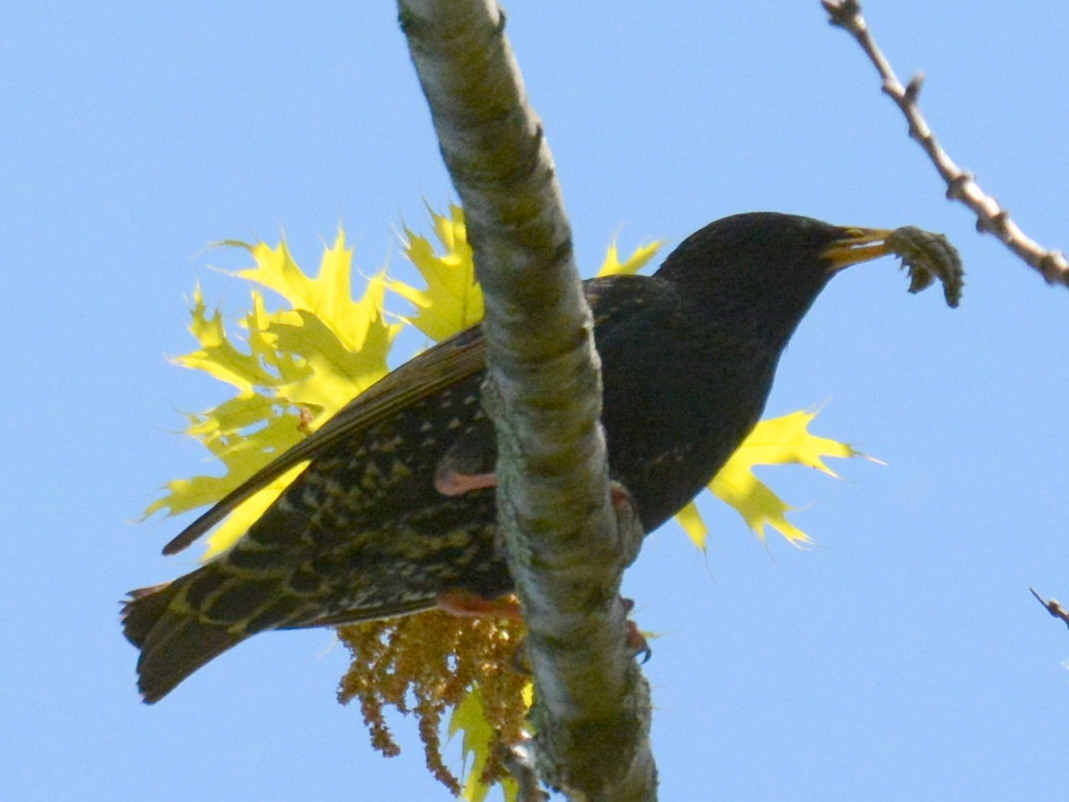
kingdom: Animalia
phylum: Chordata
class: Aves
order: Passeriformes
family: Sturnidae
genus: Sturnus
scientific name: Sturnus vulgaris
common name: Common starling
